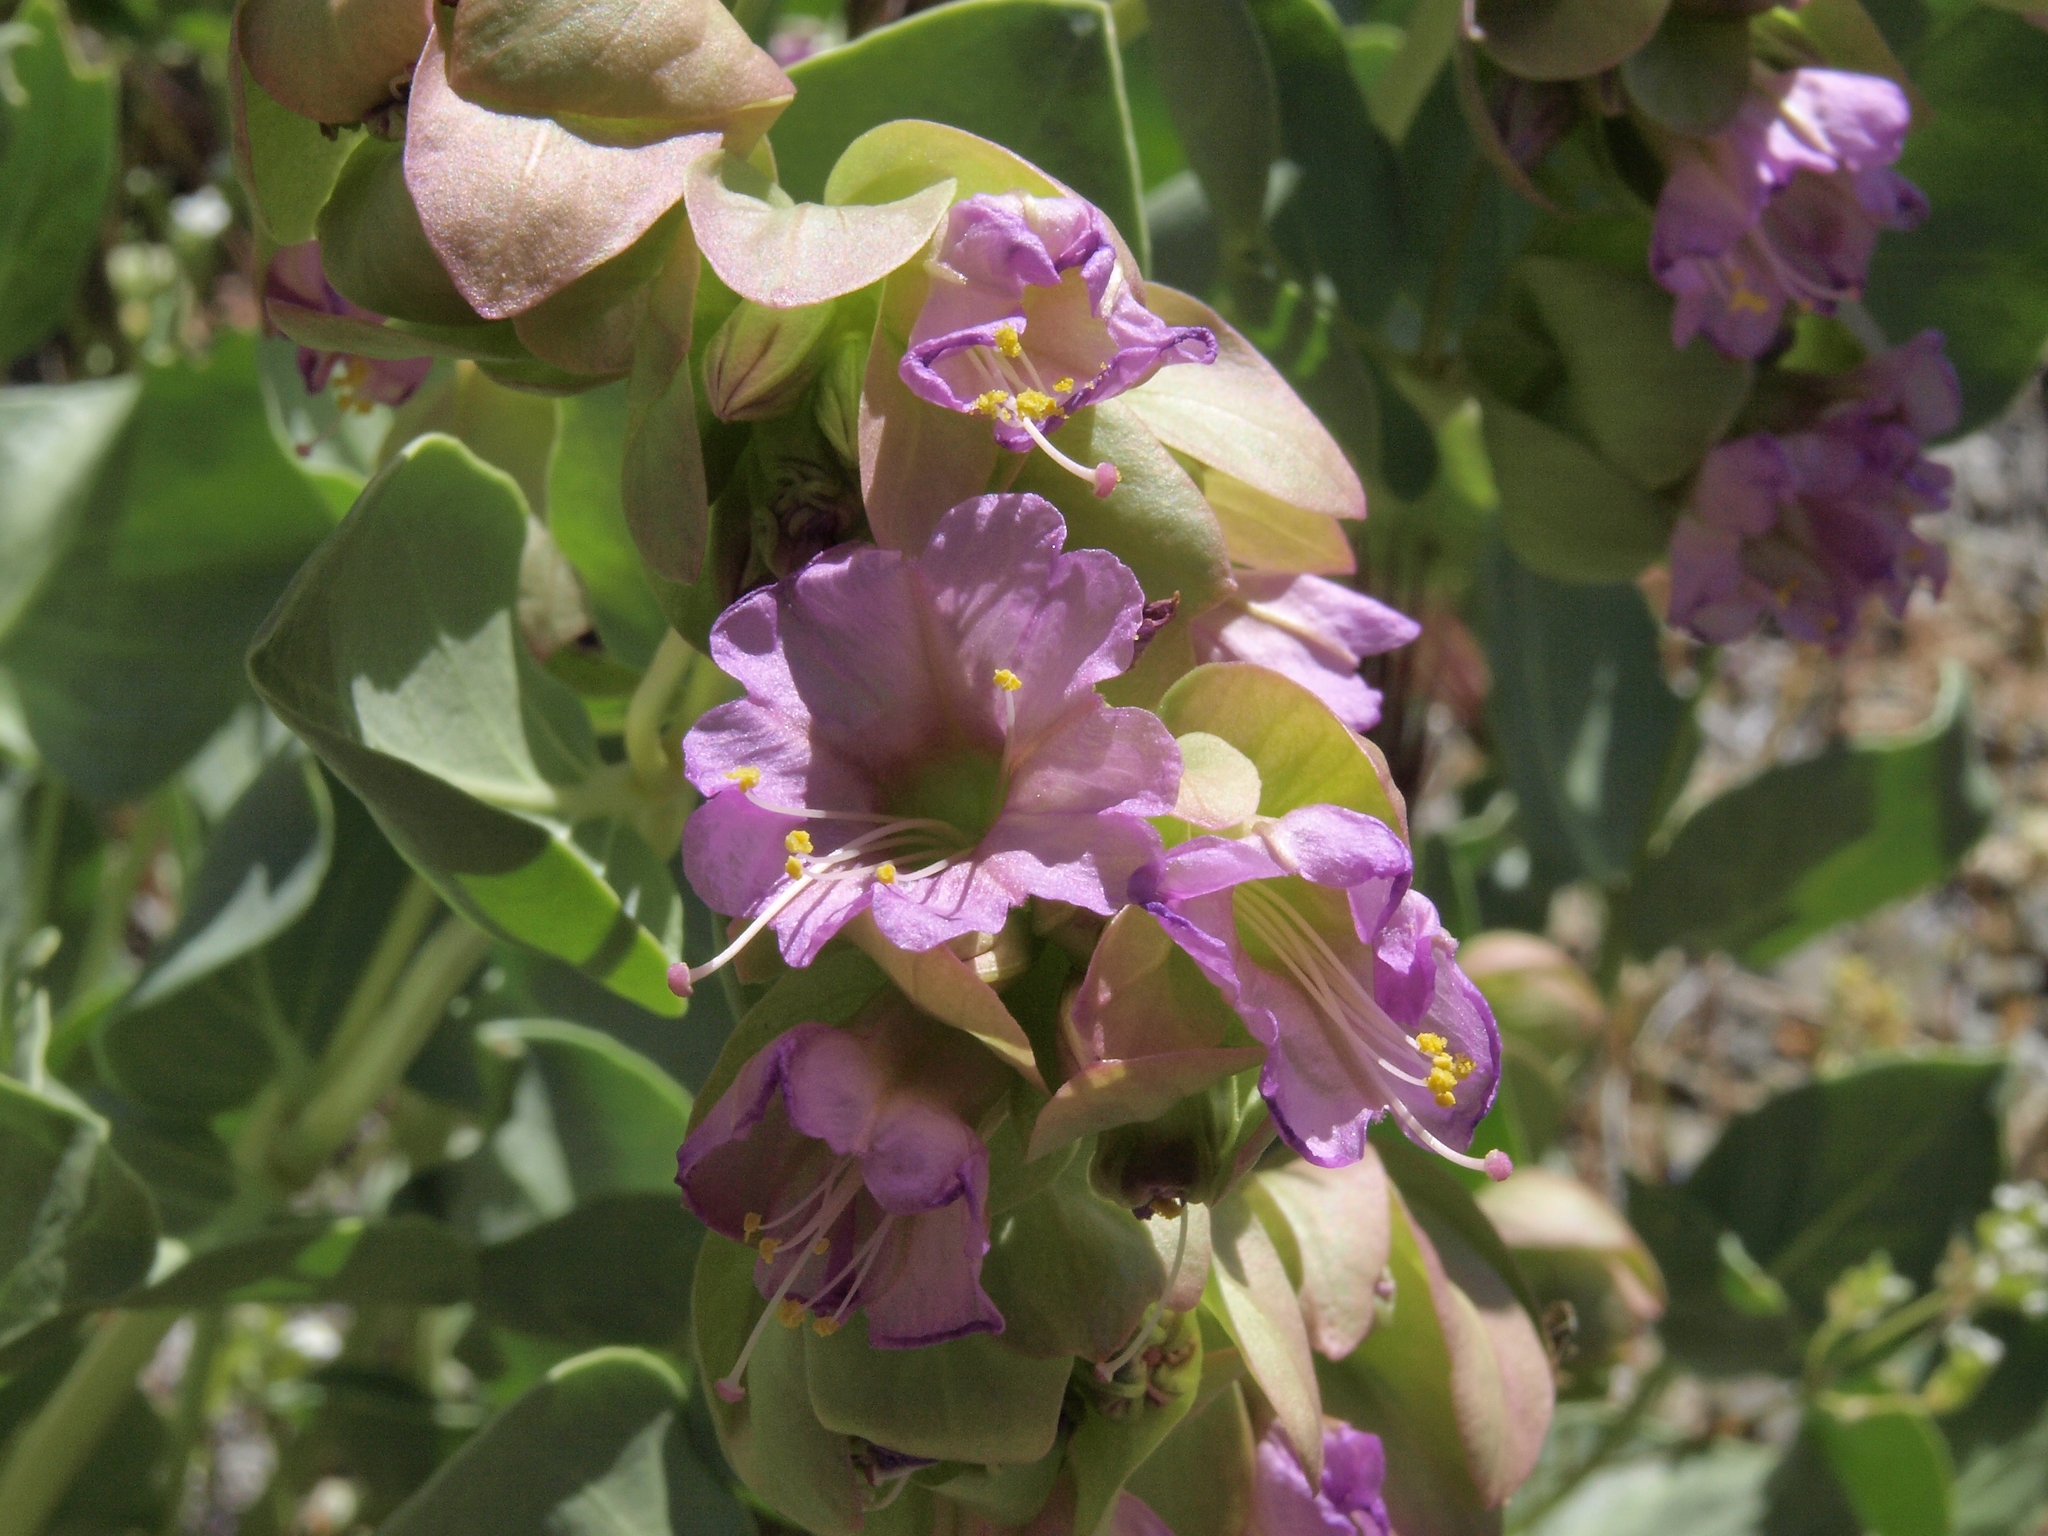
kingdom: Plantae
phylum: Tracheophyta
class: Magnoliopsida
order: Caryophyllales
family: Nyctaginaceae
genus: Mirabilis
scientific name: Mirabilis alipes
